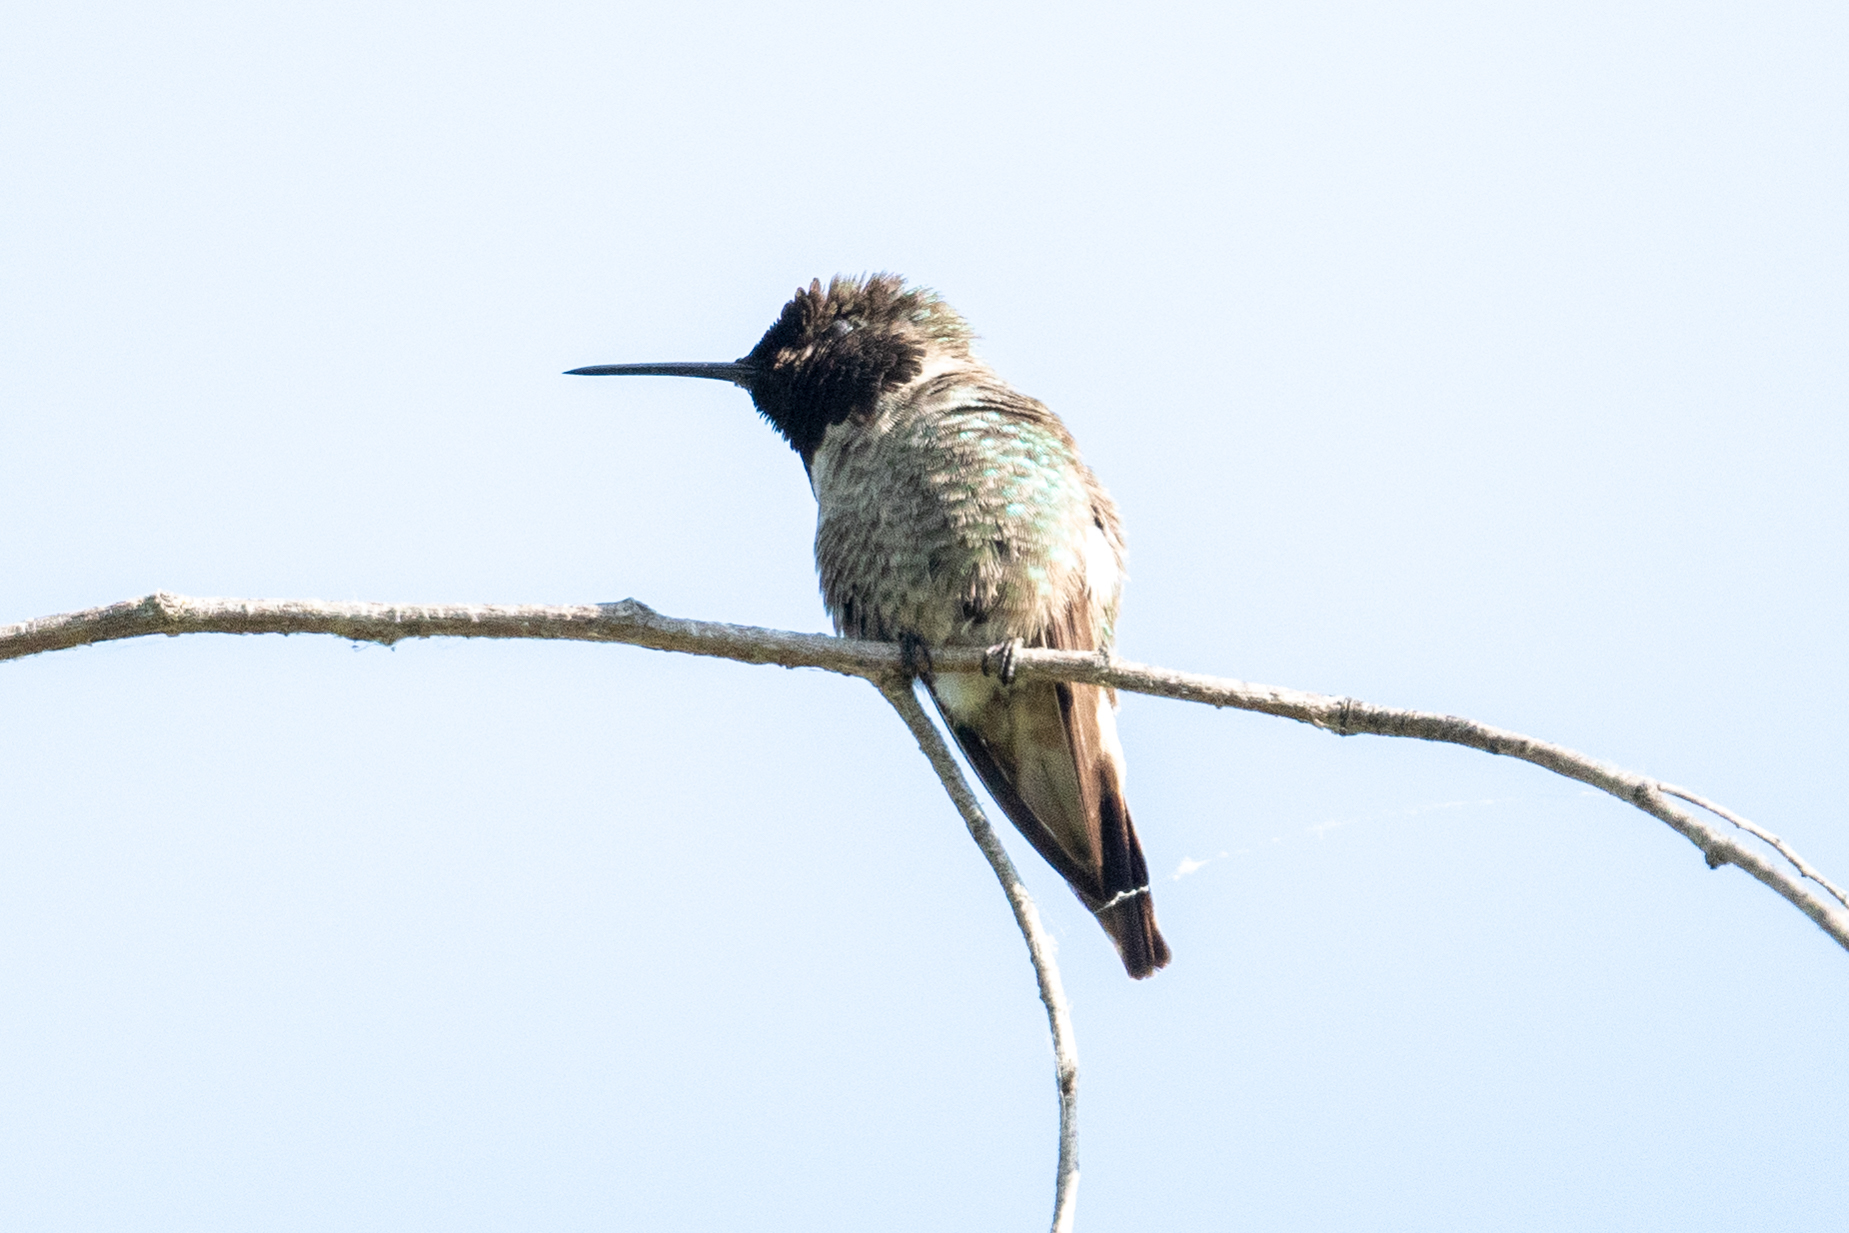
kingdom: Animalia
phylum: Chordata
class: Aves
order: Apodiformes
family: Trochilidae
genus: Calypte
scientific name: Calypte anna
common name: Anna's hummingbird
